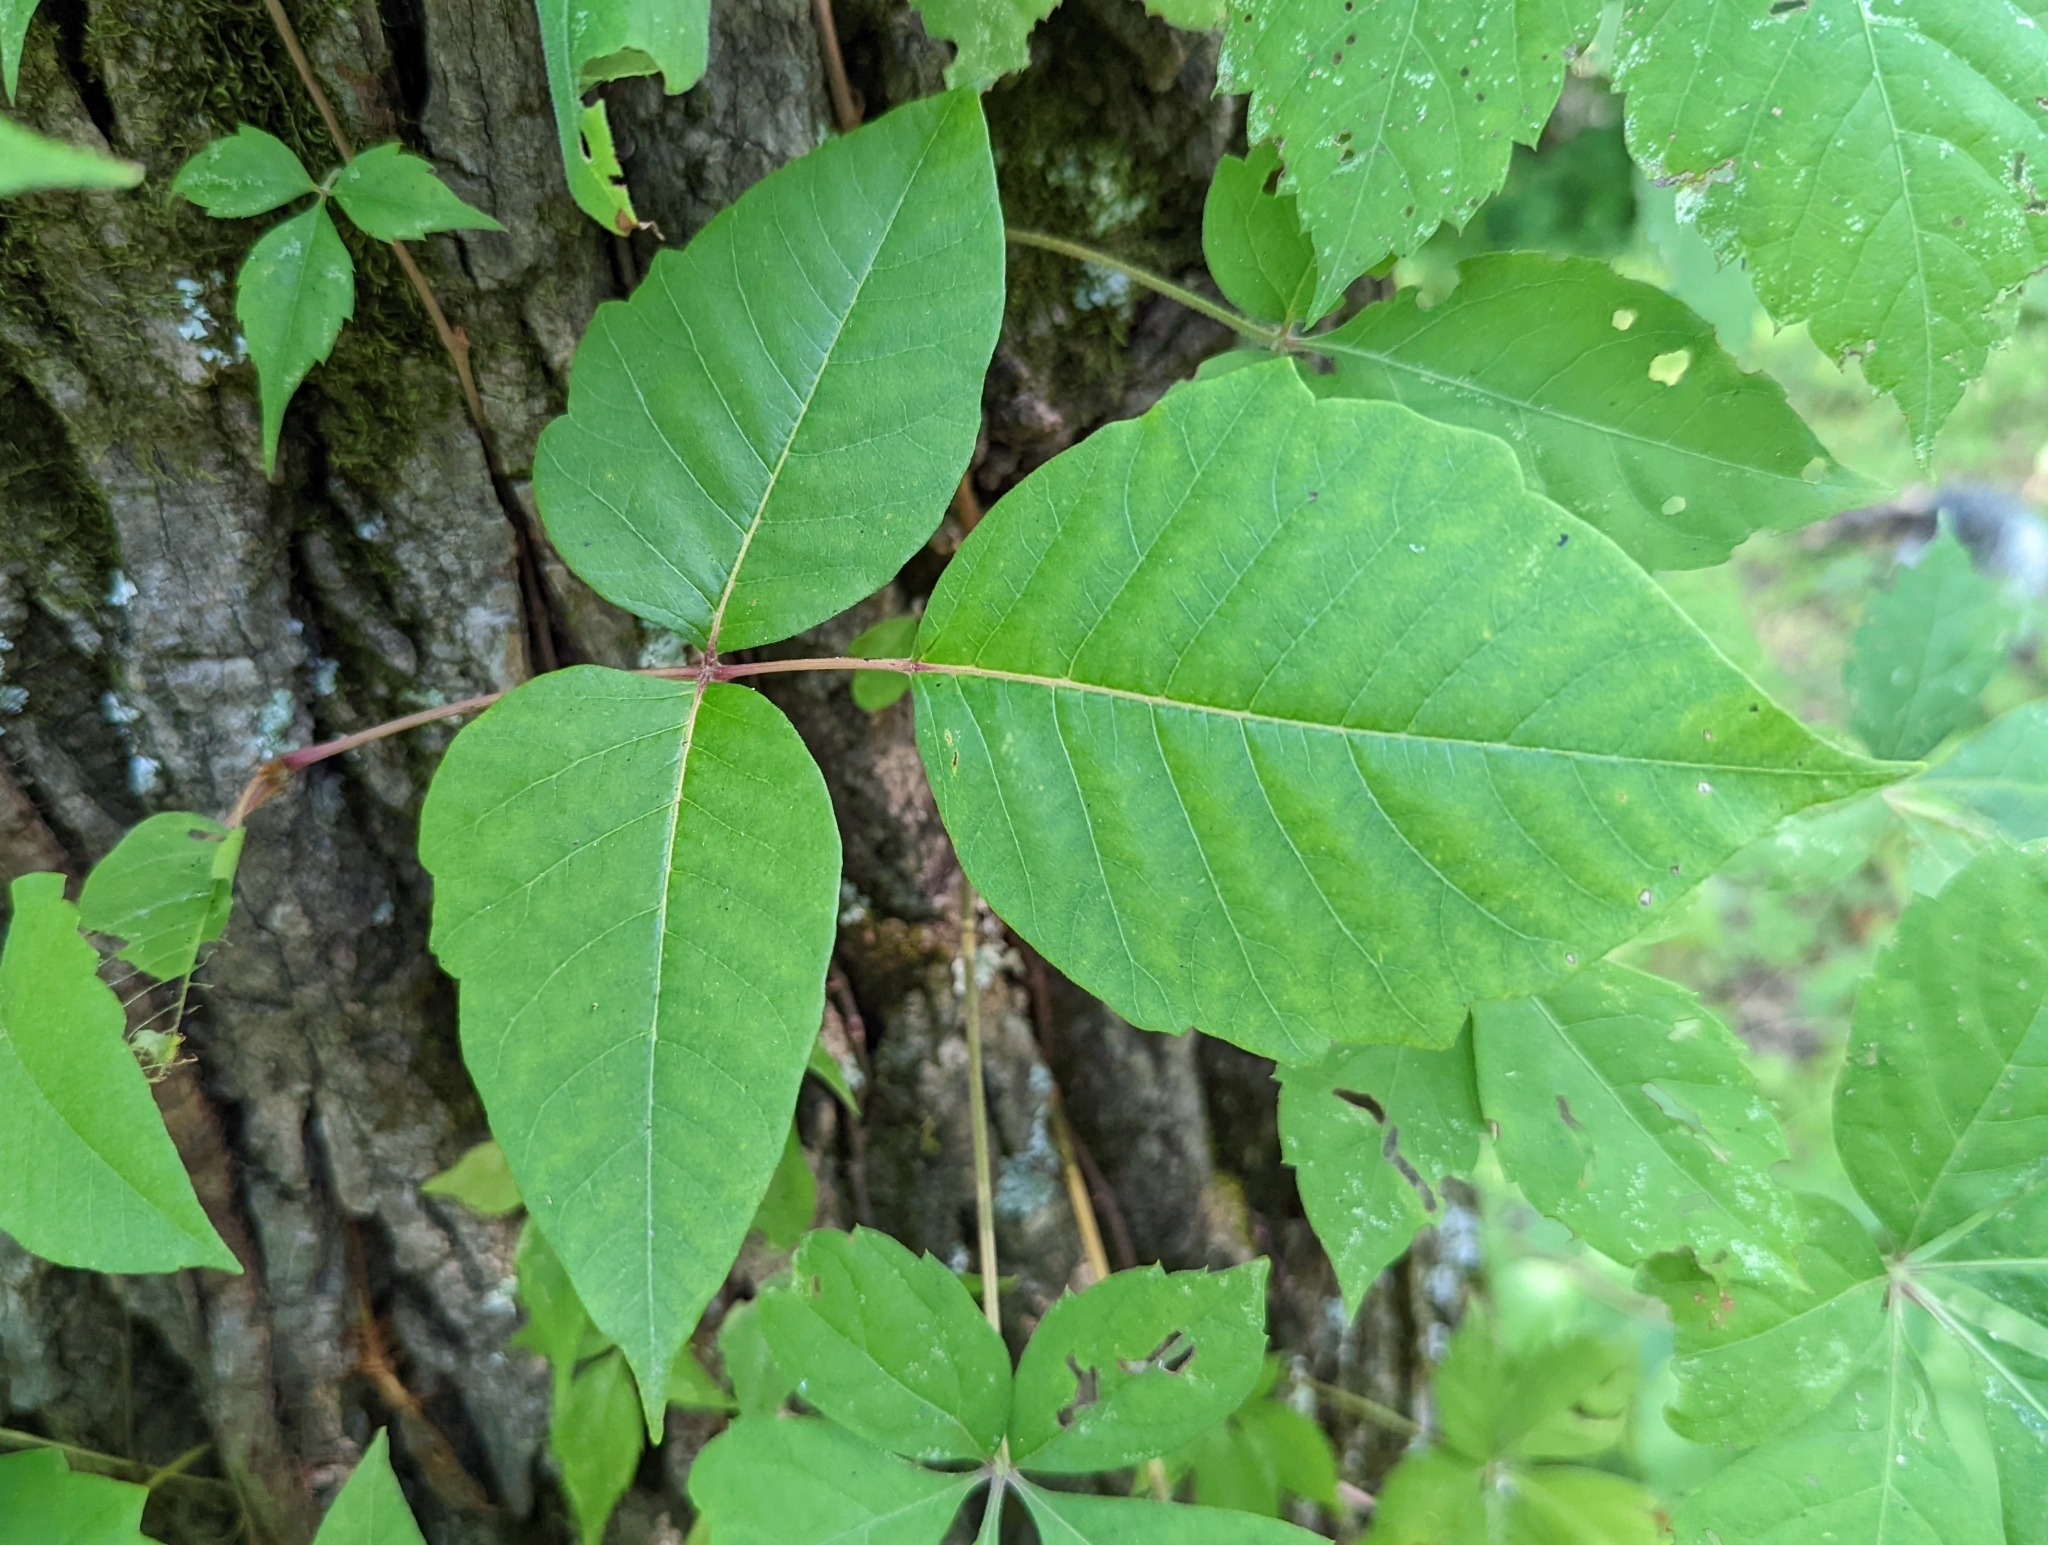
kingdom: Plantae
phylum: Tracheophyta
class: Magnoliopsida
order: Sapindales
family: Anacardiaceae
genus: Toxicodendron
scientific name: Toxicodendron radicans
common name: Poison ivy
